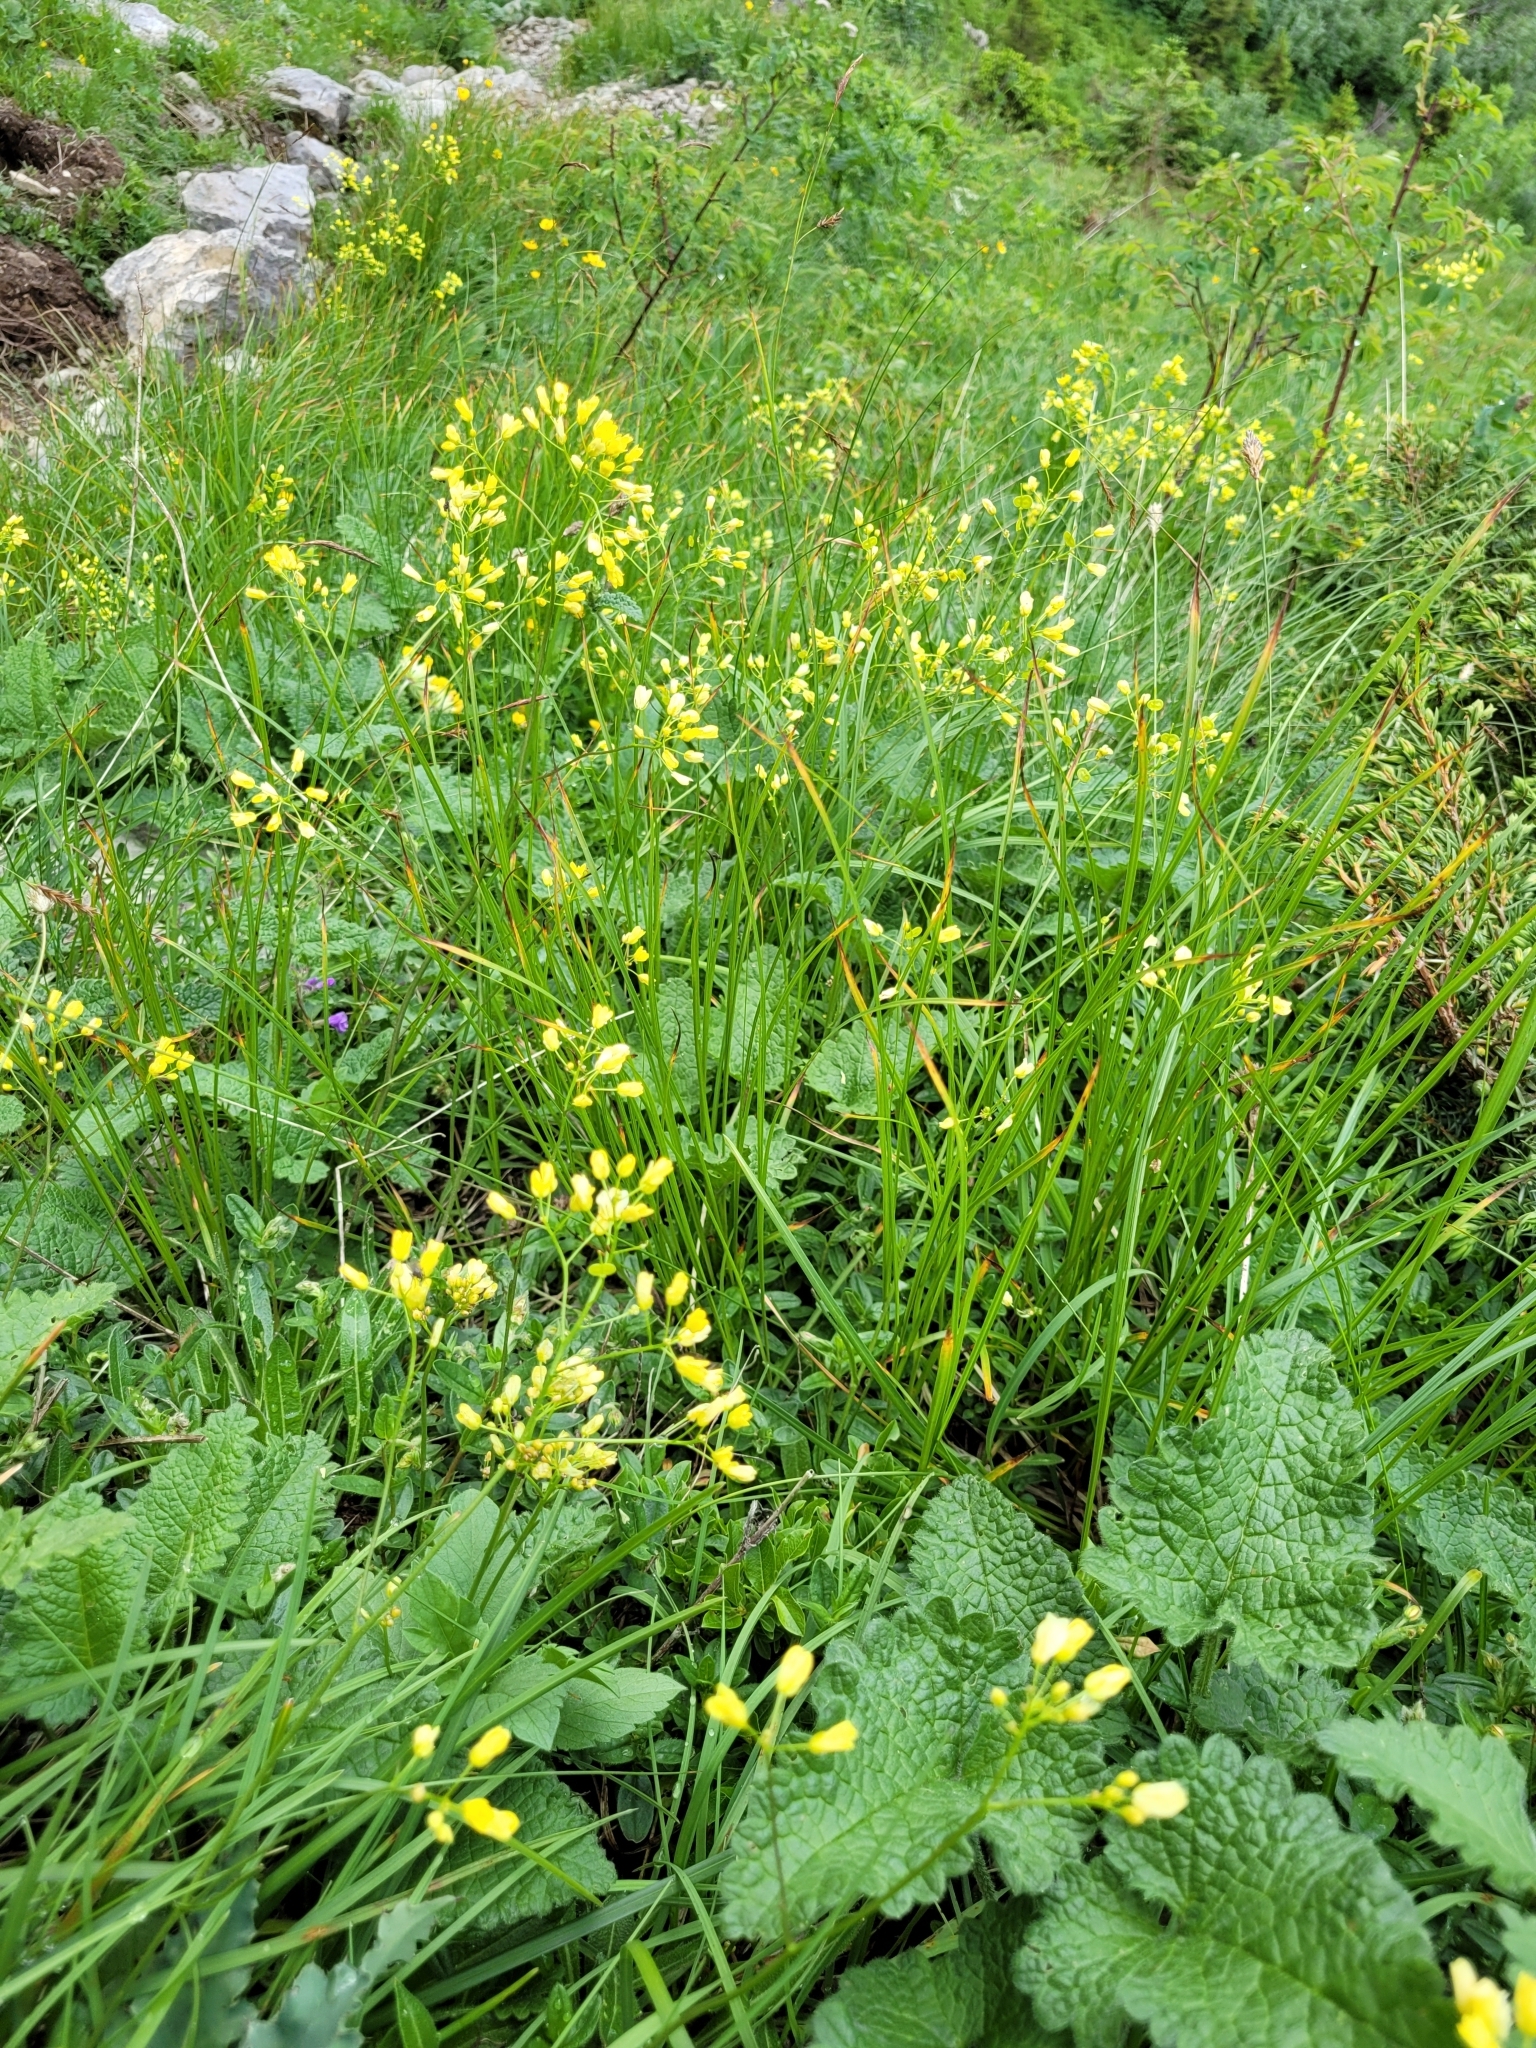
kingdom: Plantae
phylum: Tracheophyta
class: Magnoliopsida
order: Brassicales
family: Brassicaceae
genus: Biscutella
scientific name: Biscutella laevigata
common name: Buckler mustard
